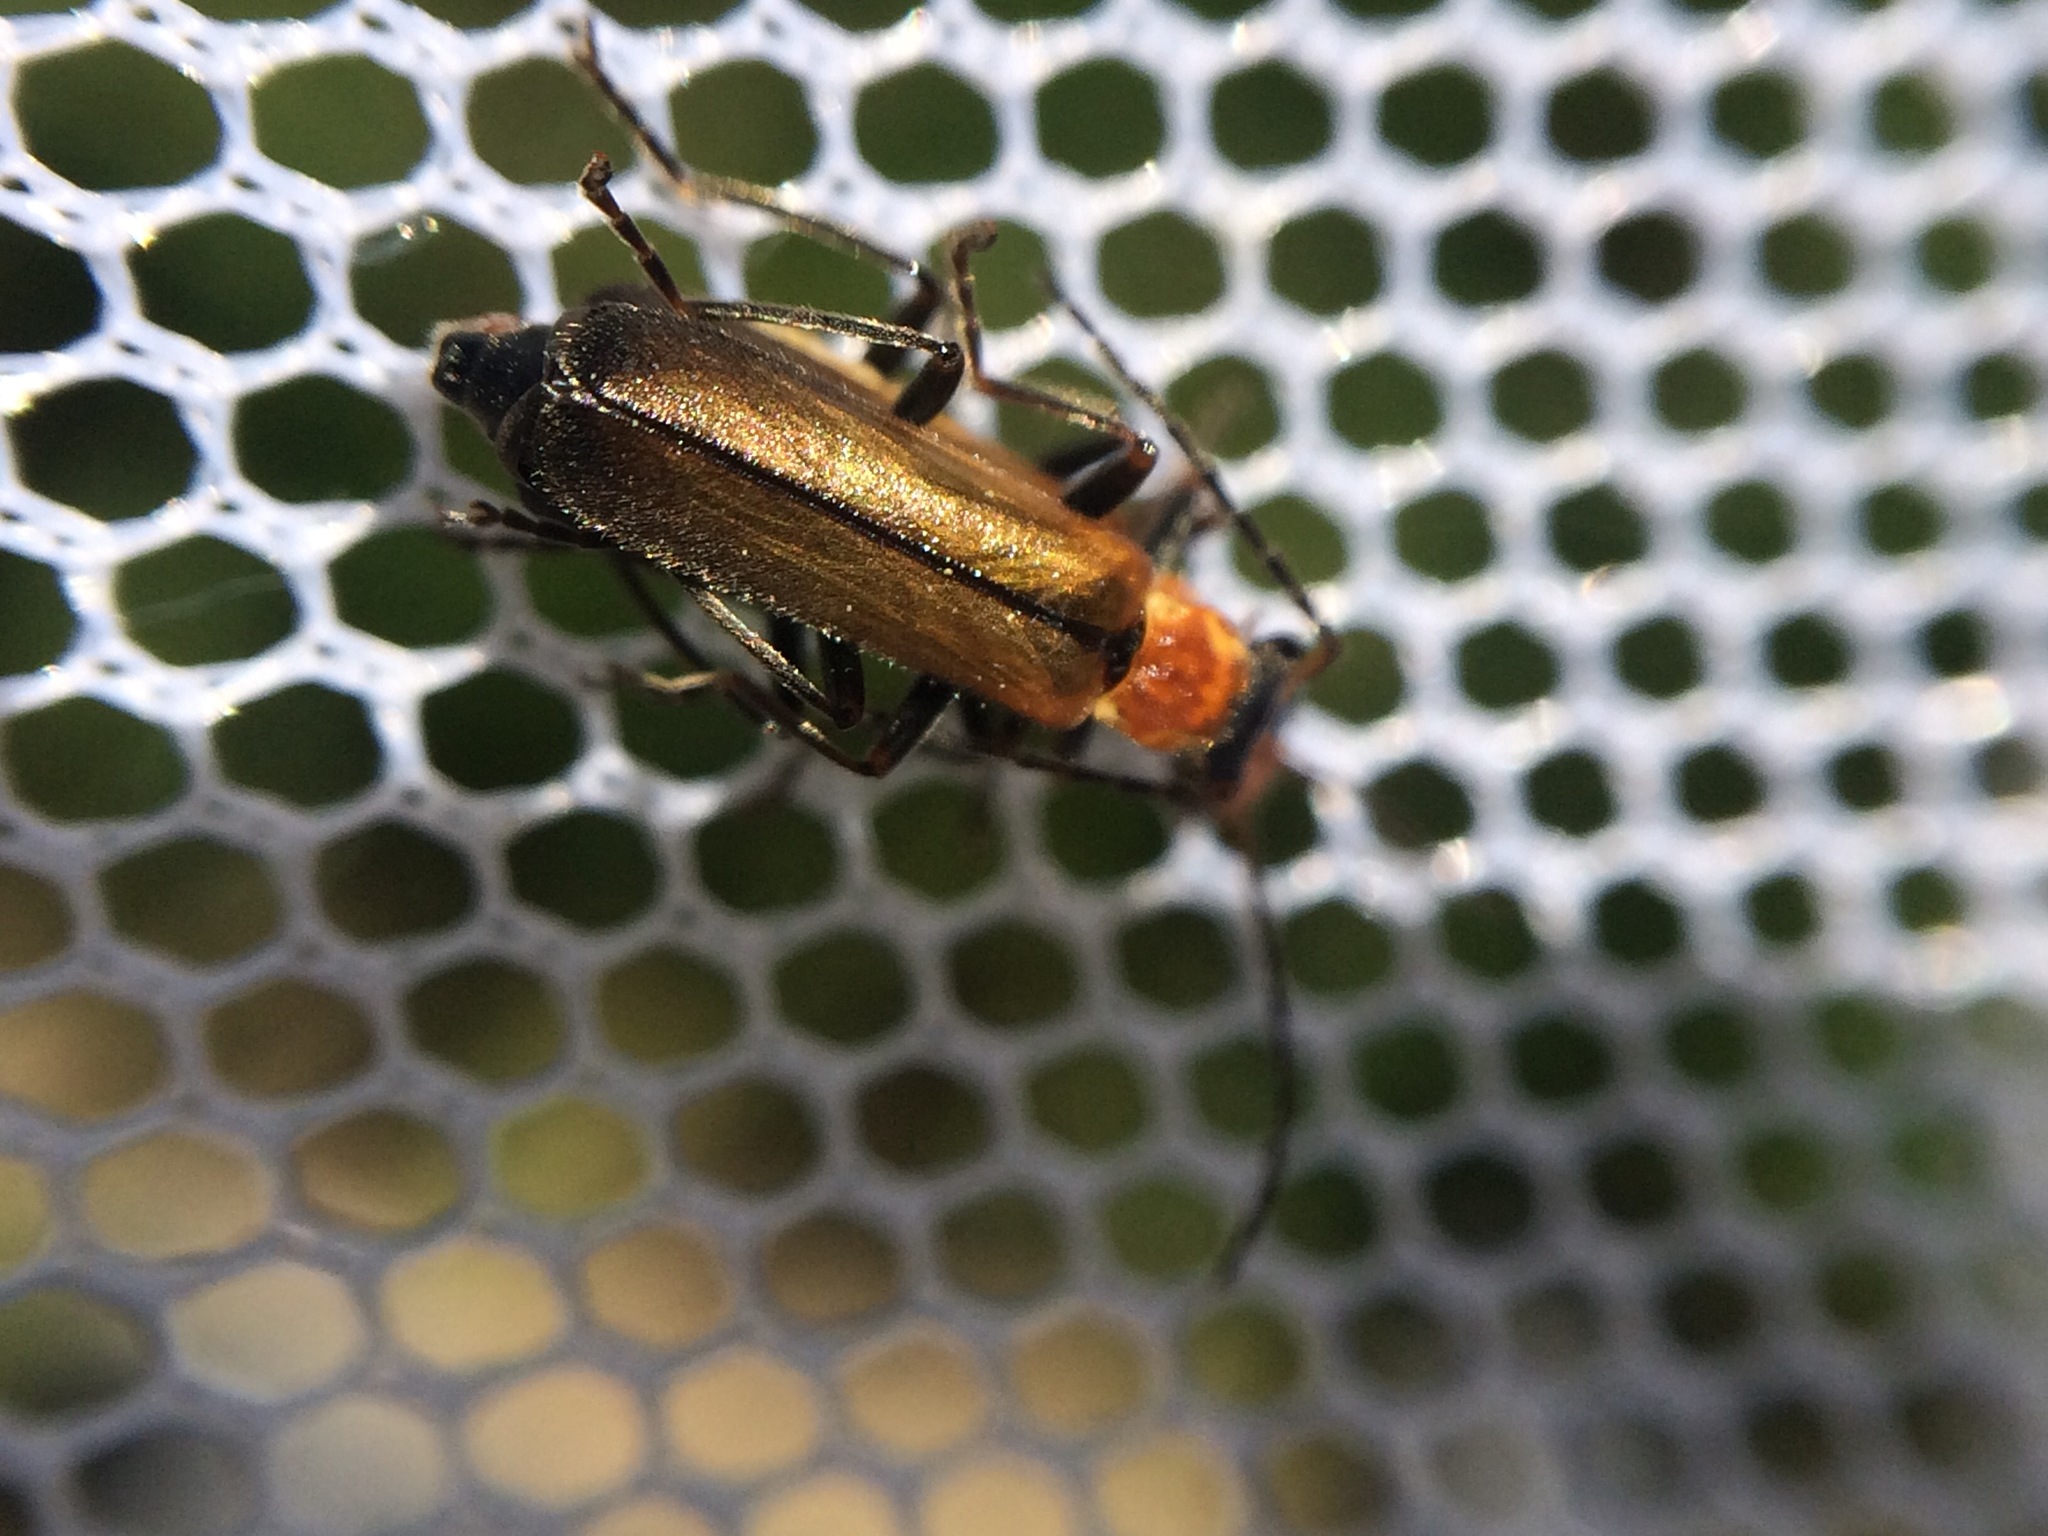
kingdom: Animalia
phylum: Arthropoda
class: Insecta
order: Coleoptera
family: Cantharidae
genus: Dichelotarsus
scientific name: Dichelotarsus lutosus
